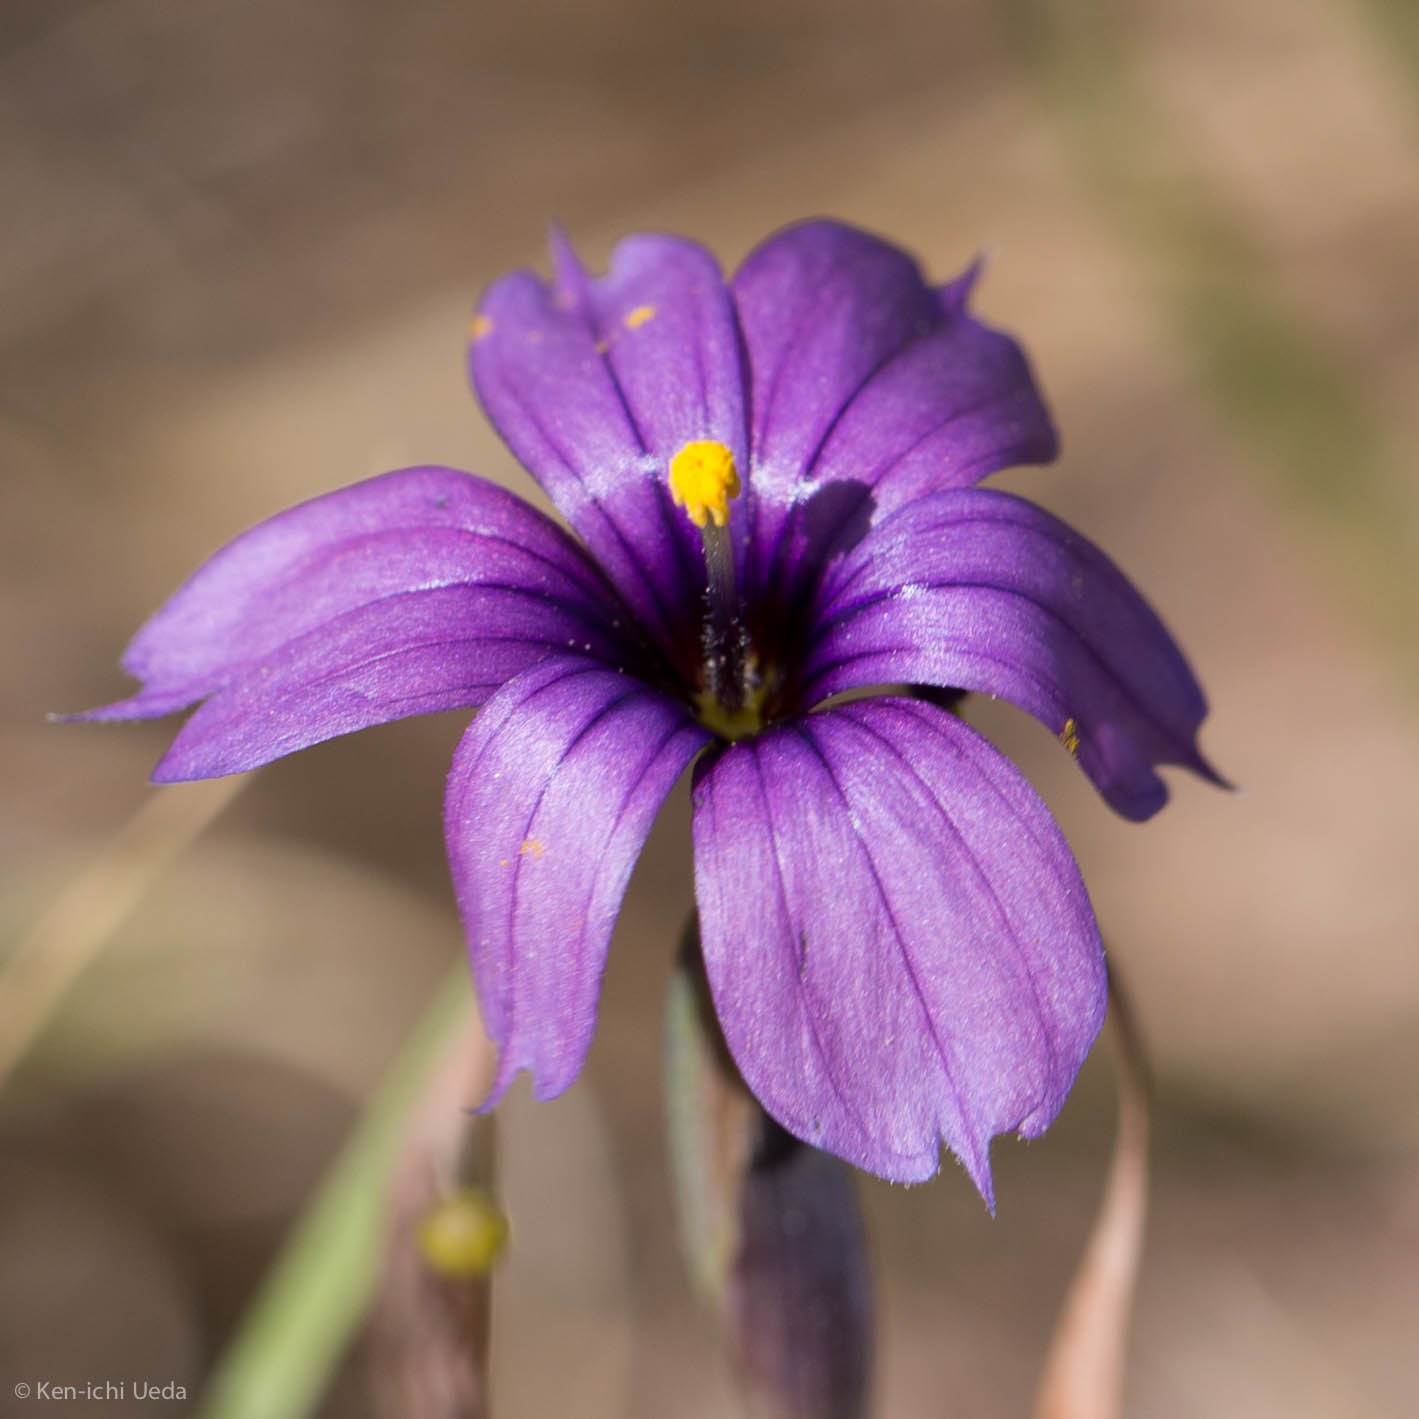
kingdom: Plantae
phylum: Tracheophyta
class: Liliopsida
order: Asparagales
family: Iridaceae
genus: Sisyrinchium
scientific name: Sisyrinchium bellum
